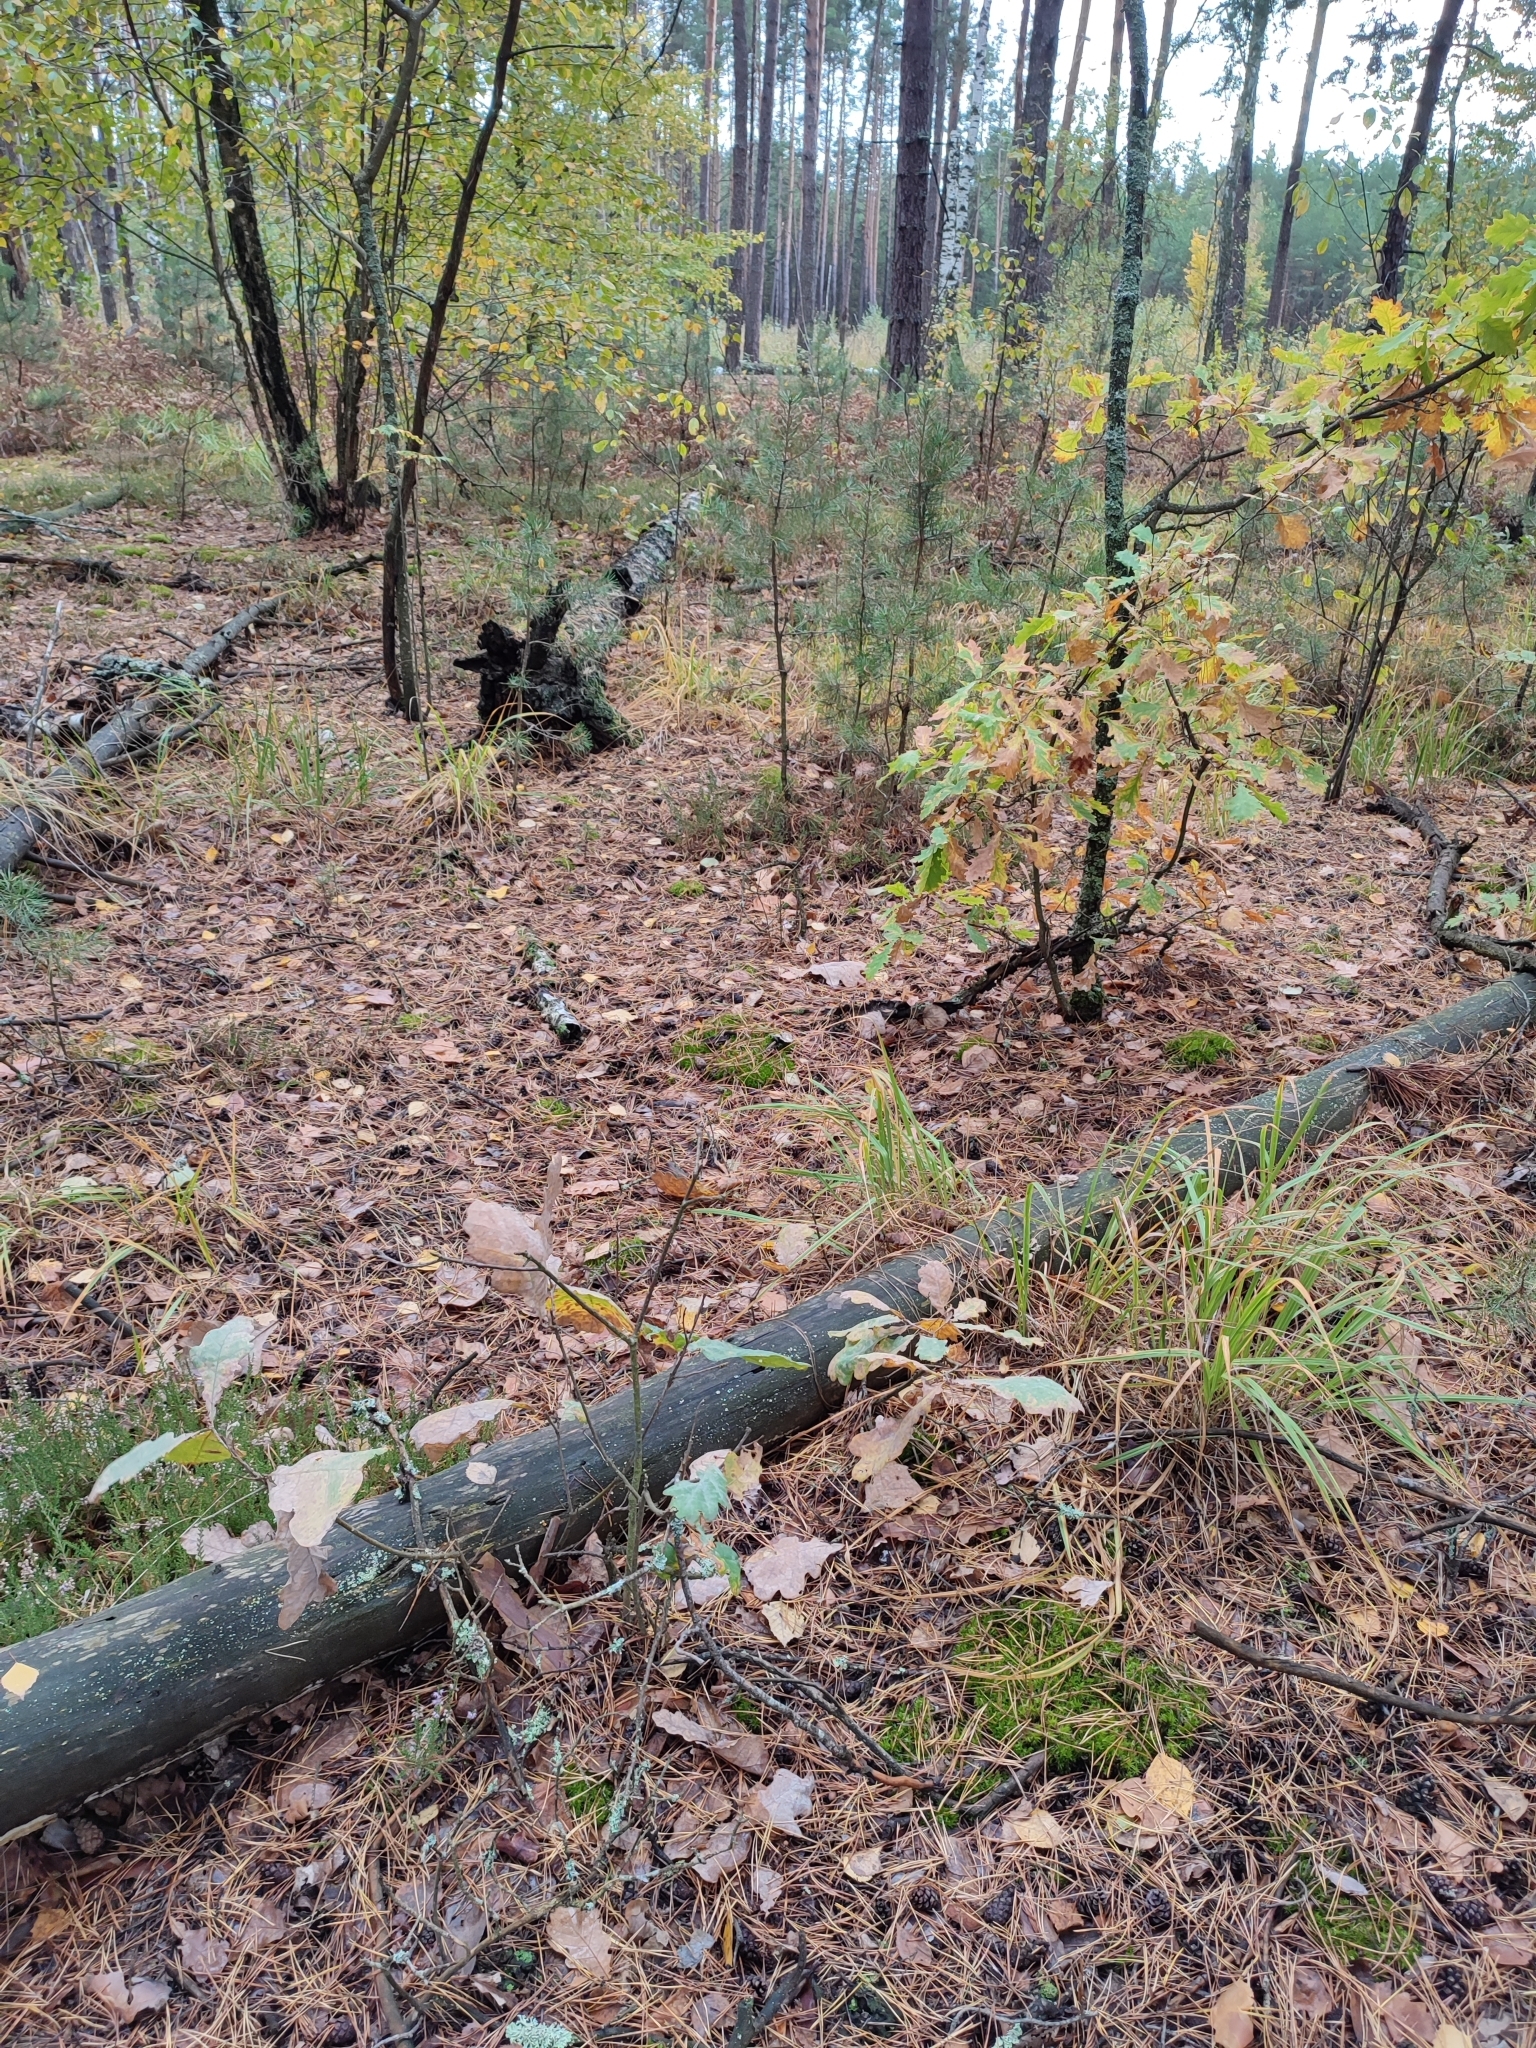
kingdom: Plantae
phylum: Tracheophyta
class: Magnoliopsida
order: Fagales
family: Fagaceae
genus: Quercus
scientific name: Quercus robur
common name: Pedunculate oak
